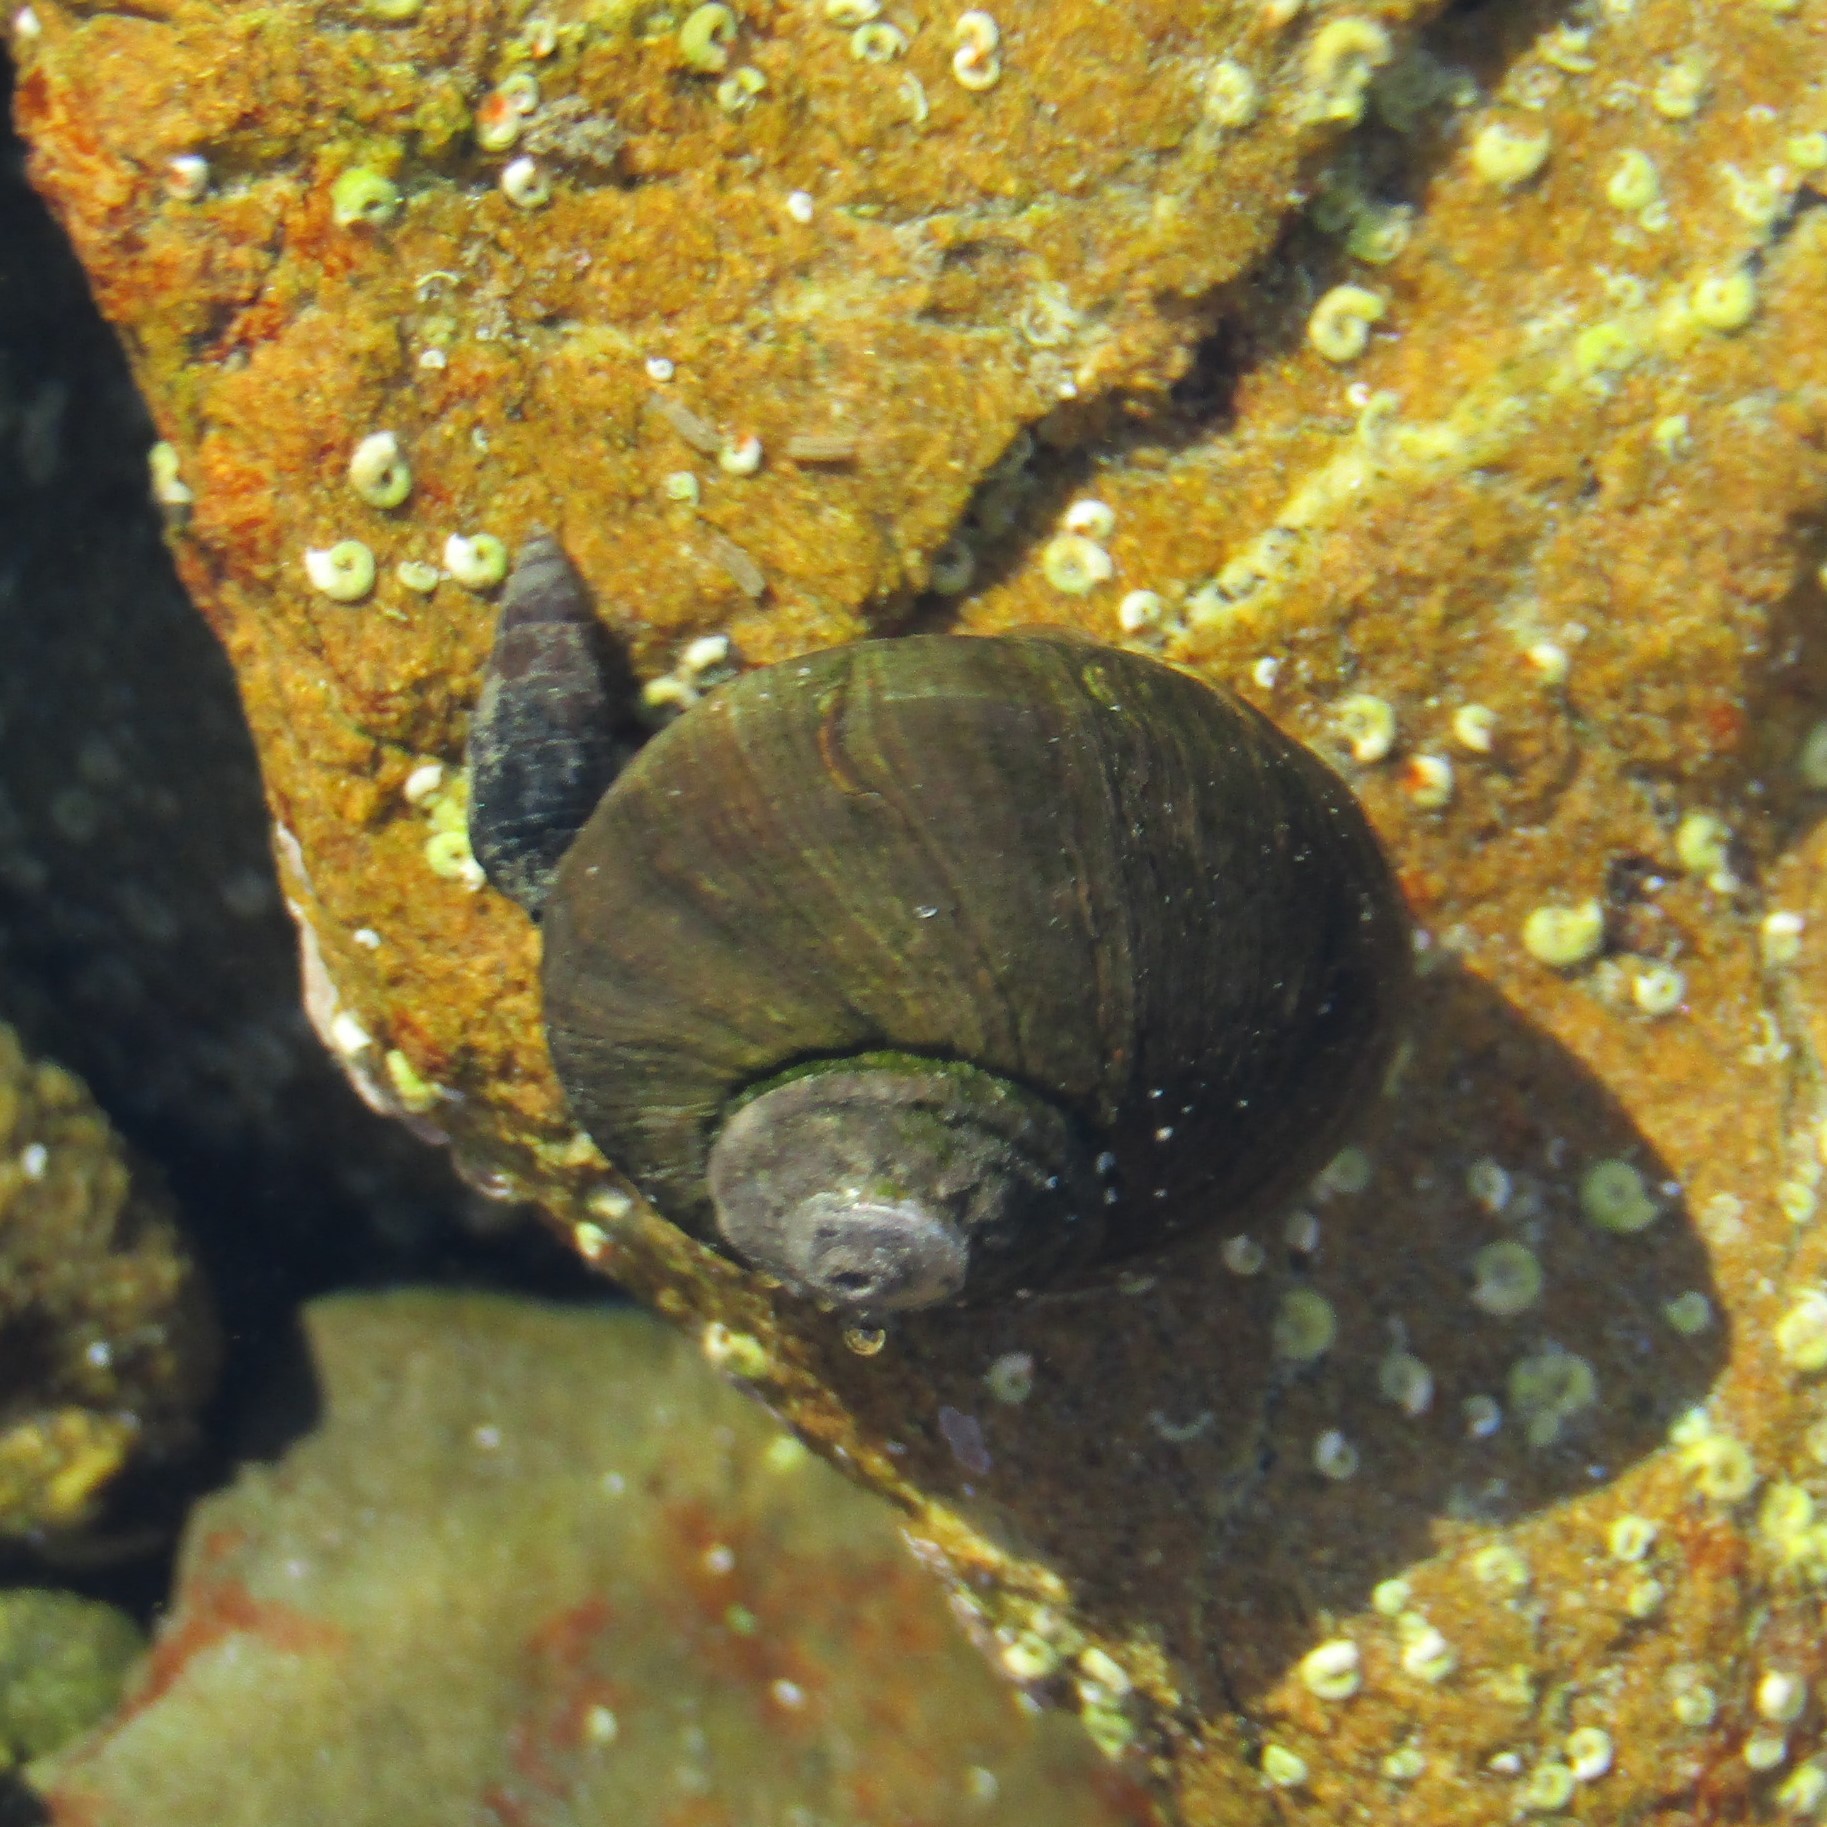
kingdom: Animalia
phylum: Mollusca
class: Gastropoda
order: Trochida
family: Turbinidae
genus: Lunella
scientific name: Lunella smaragda
